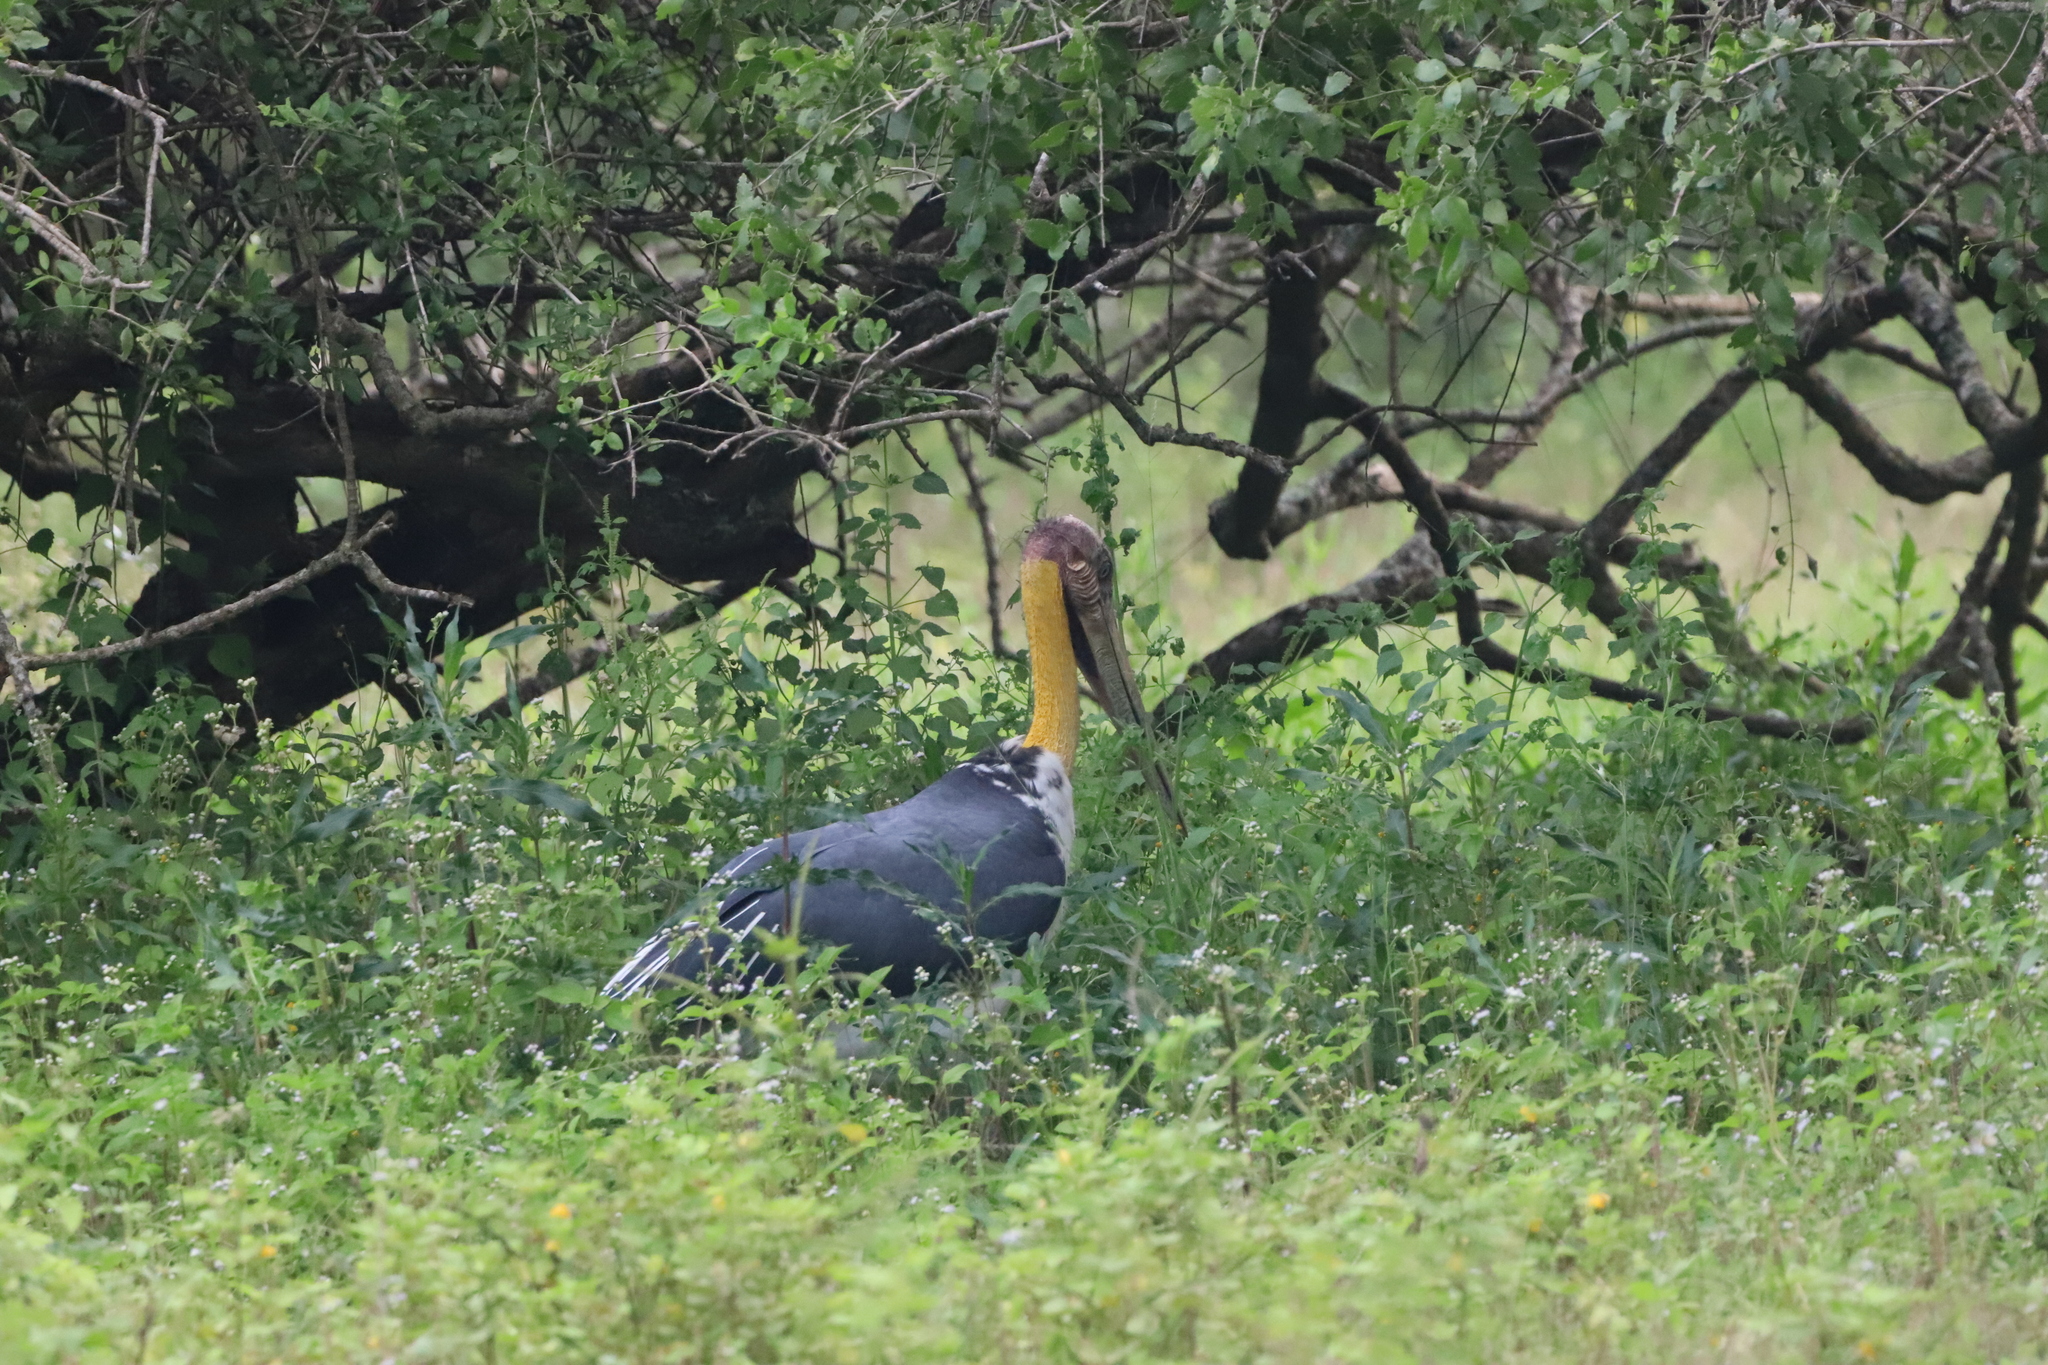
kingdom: Animalia
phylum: Chordata
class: Aves
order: Ciconiiformes
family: Ciconiidae
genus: Leptoptilos
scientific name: Leptoptilos javanicus
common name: Lesser adjutant
